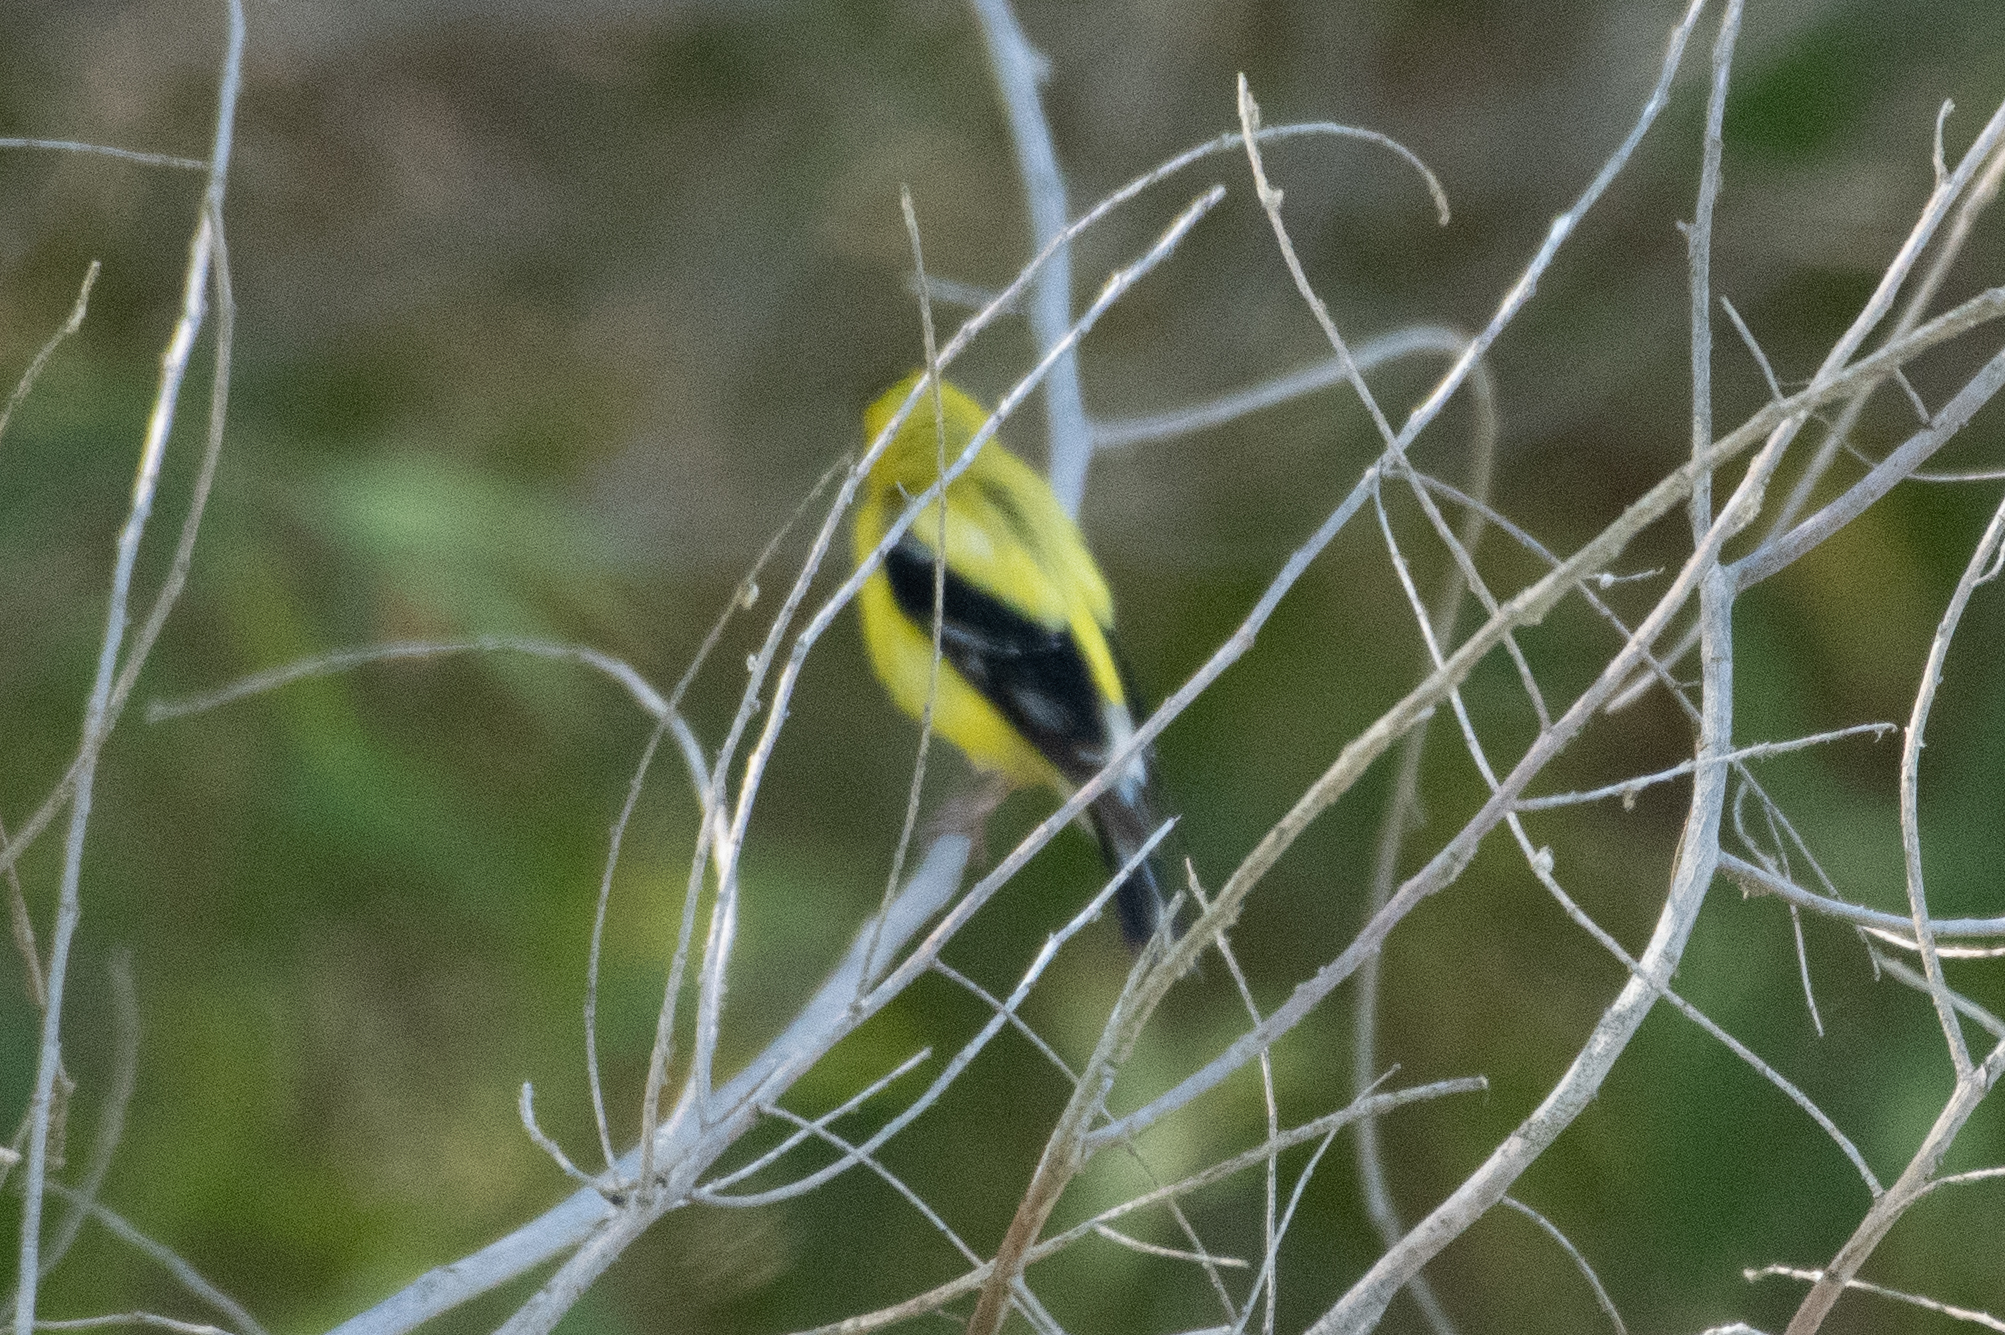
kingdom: Animalia
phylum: Chordata
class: Aves
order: Passeriformes
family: Fringillidae
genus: Spinus
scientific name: Spinus tristis
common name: American goldfinch
